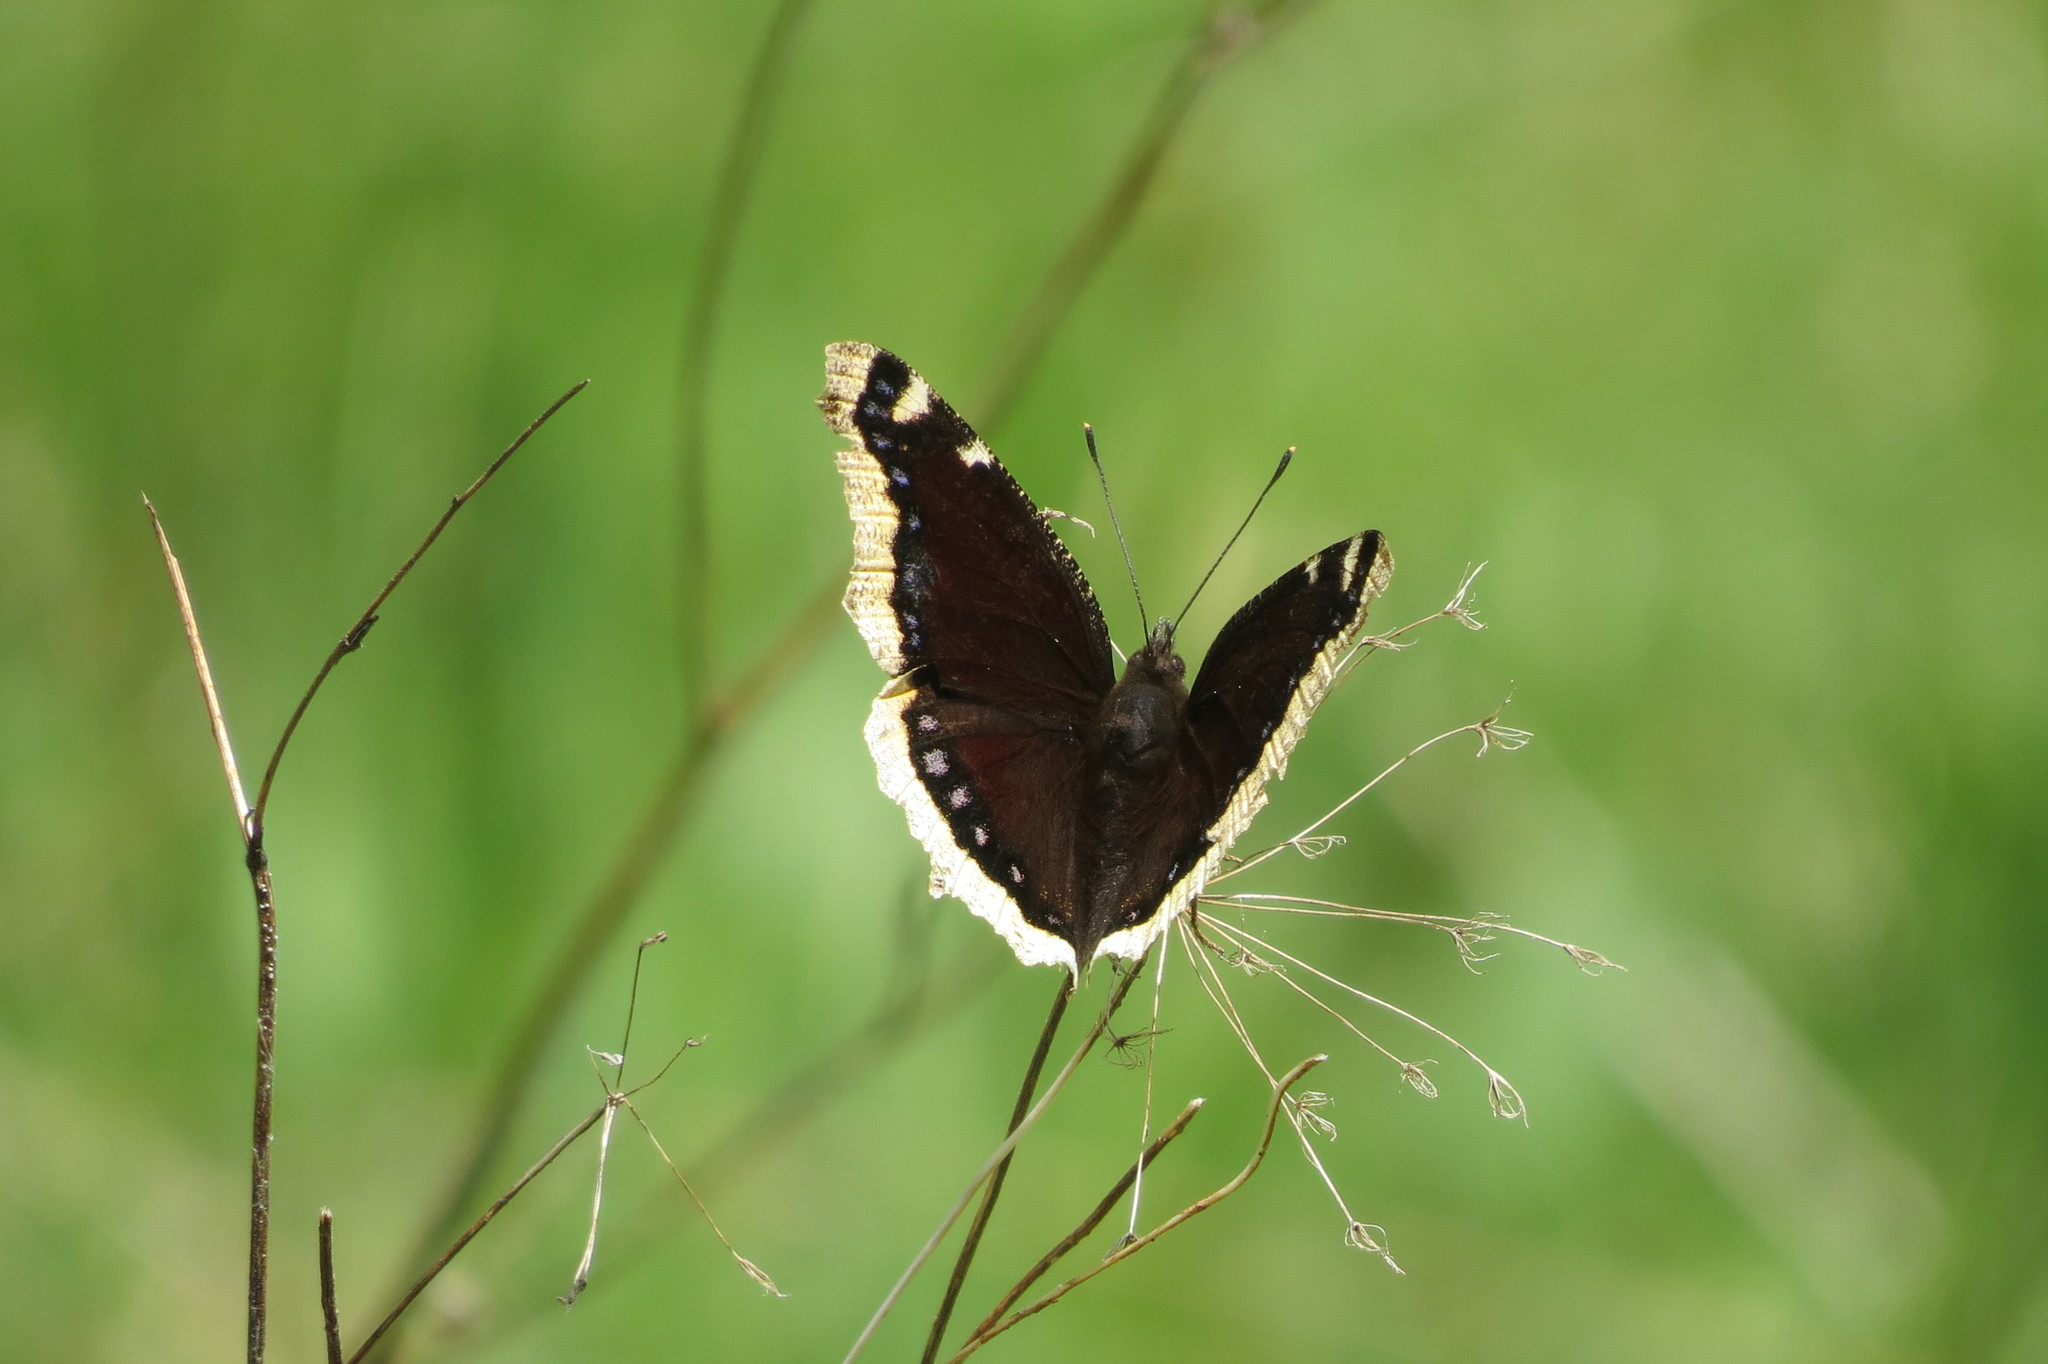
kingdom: Animalia
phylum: Arthropoda
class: Insecta
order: Lepidoptera
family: Nymphalidae
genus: Nymphalis
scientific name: Nymphalis antiopa
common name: Camberwell beauty
